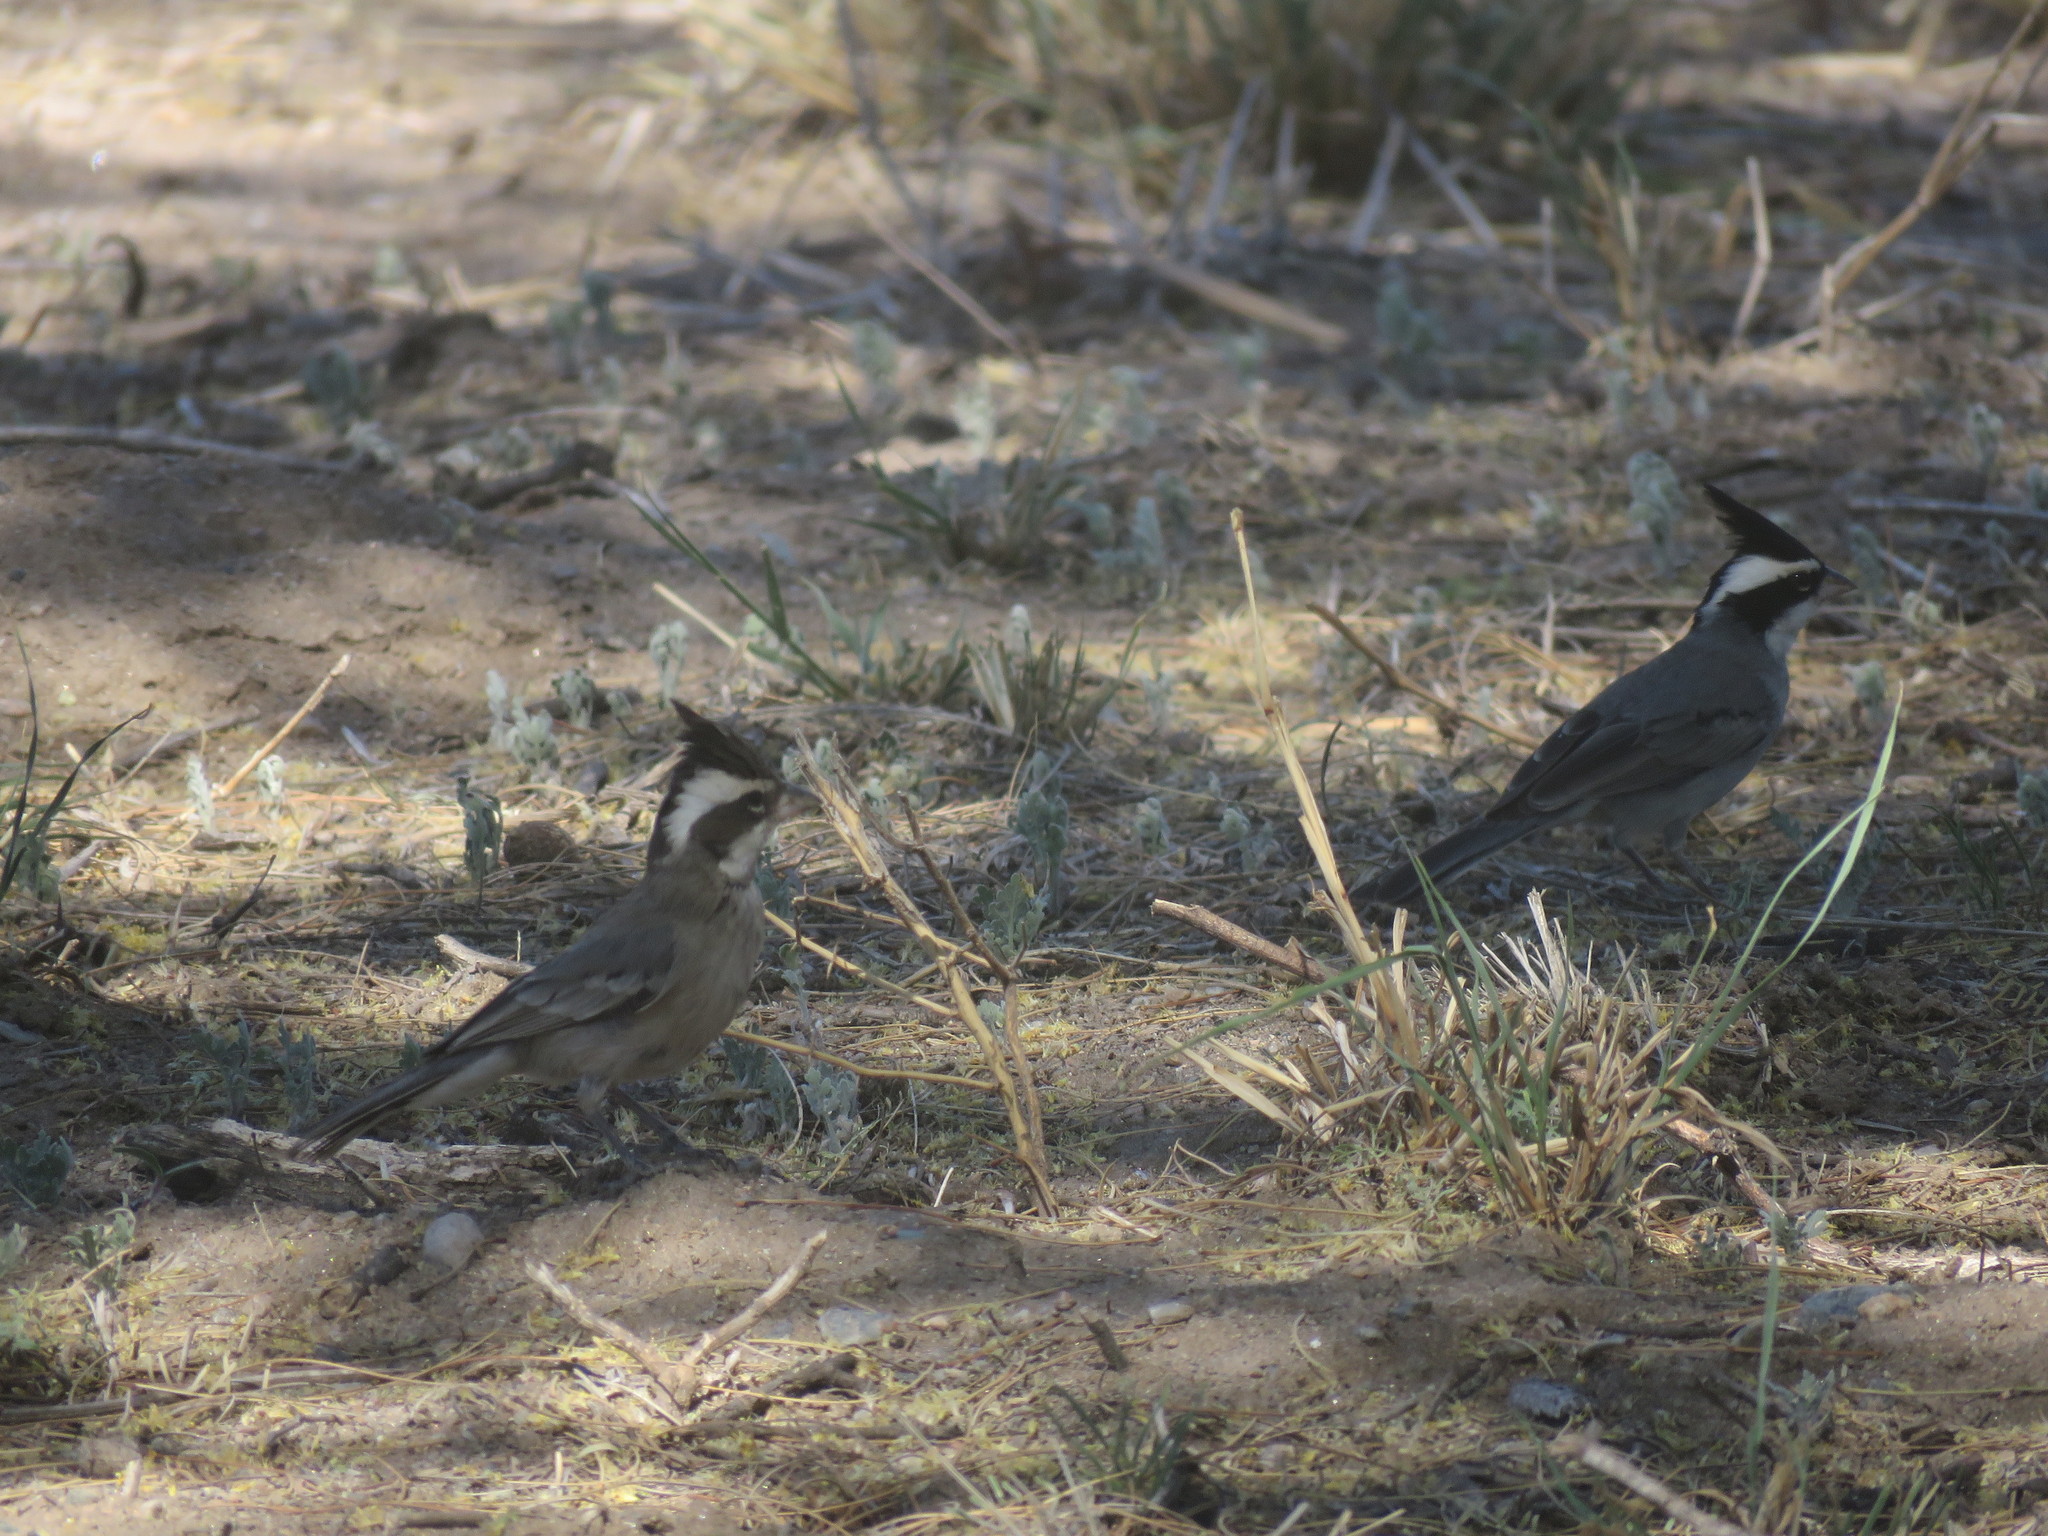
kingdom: Animalia
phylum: Chordata
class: Aves
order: Passeriformes
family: Thraupidae
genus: Lophospingus
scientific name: Lophospingus pusillus
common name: Black-crested finch
